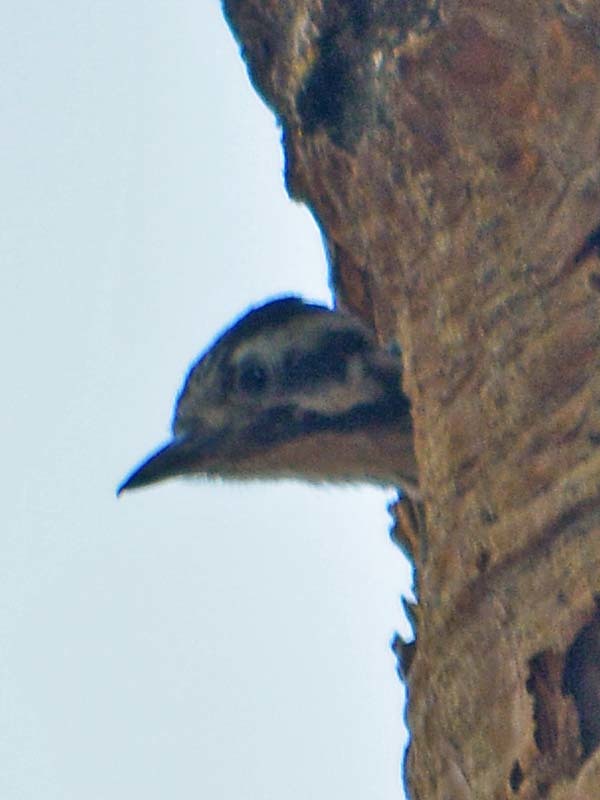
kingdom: Animalia
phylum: Chordata
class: Aves
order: Piciformes
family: Picidae
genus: Dryobates
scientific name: Dryobates scalaris
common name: Ladder-backed woodpecker
